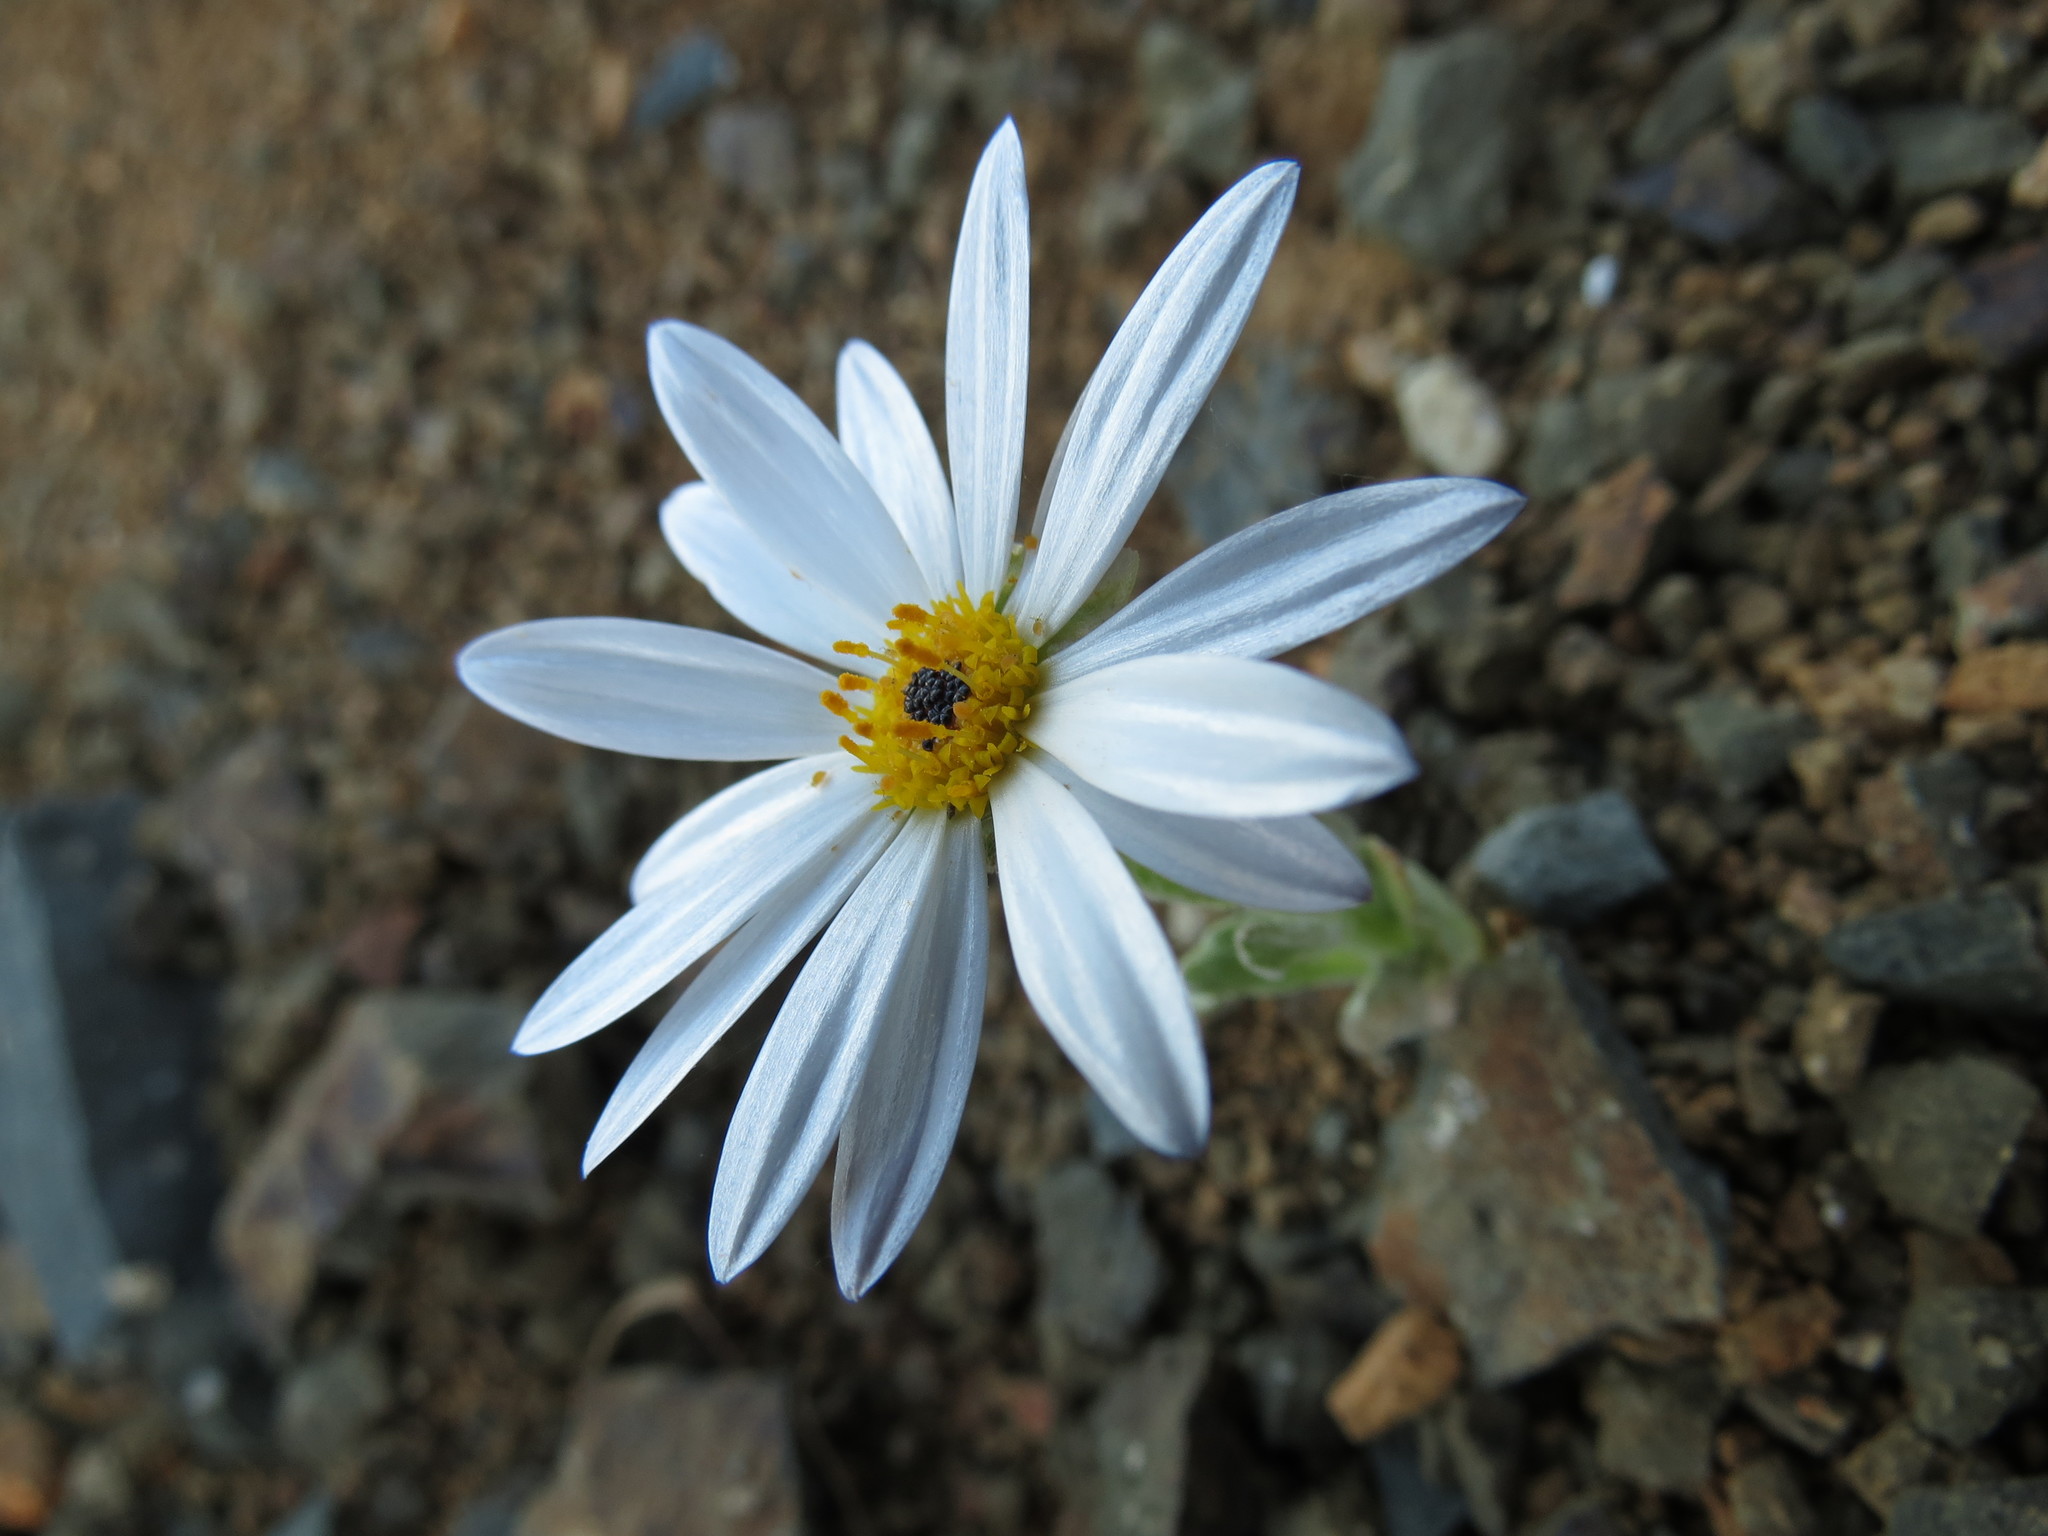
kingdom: Plantae
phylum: Tracheophyta
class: Magnoliopsida
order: Asterales
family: Asteraceae
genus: Arctotis
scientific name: Arctotis leiocarpa
